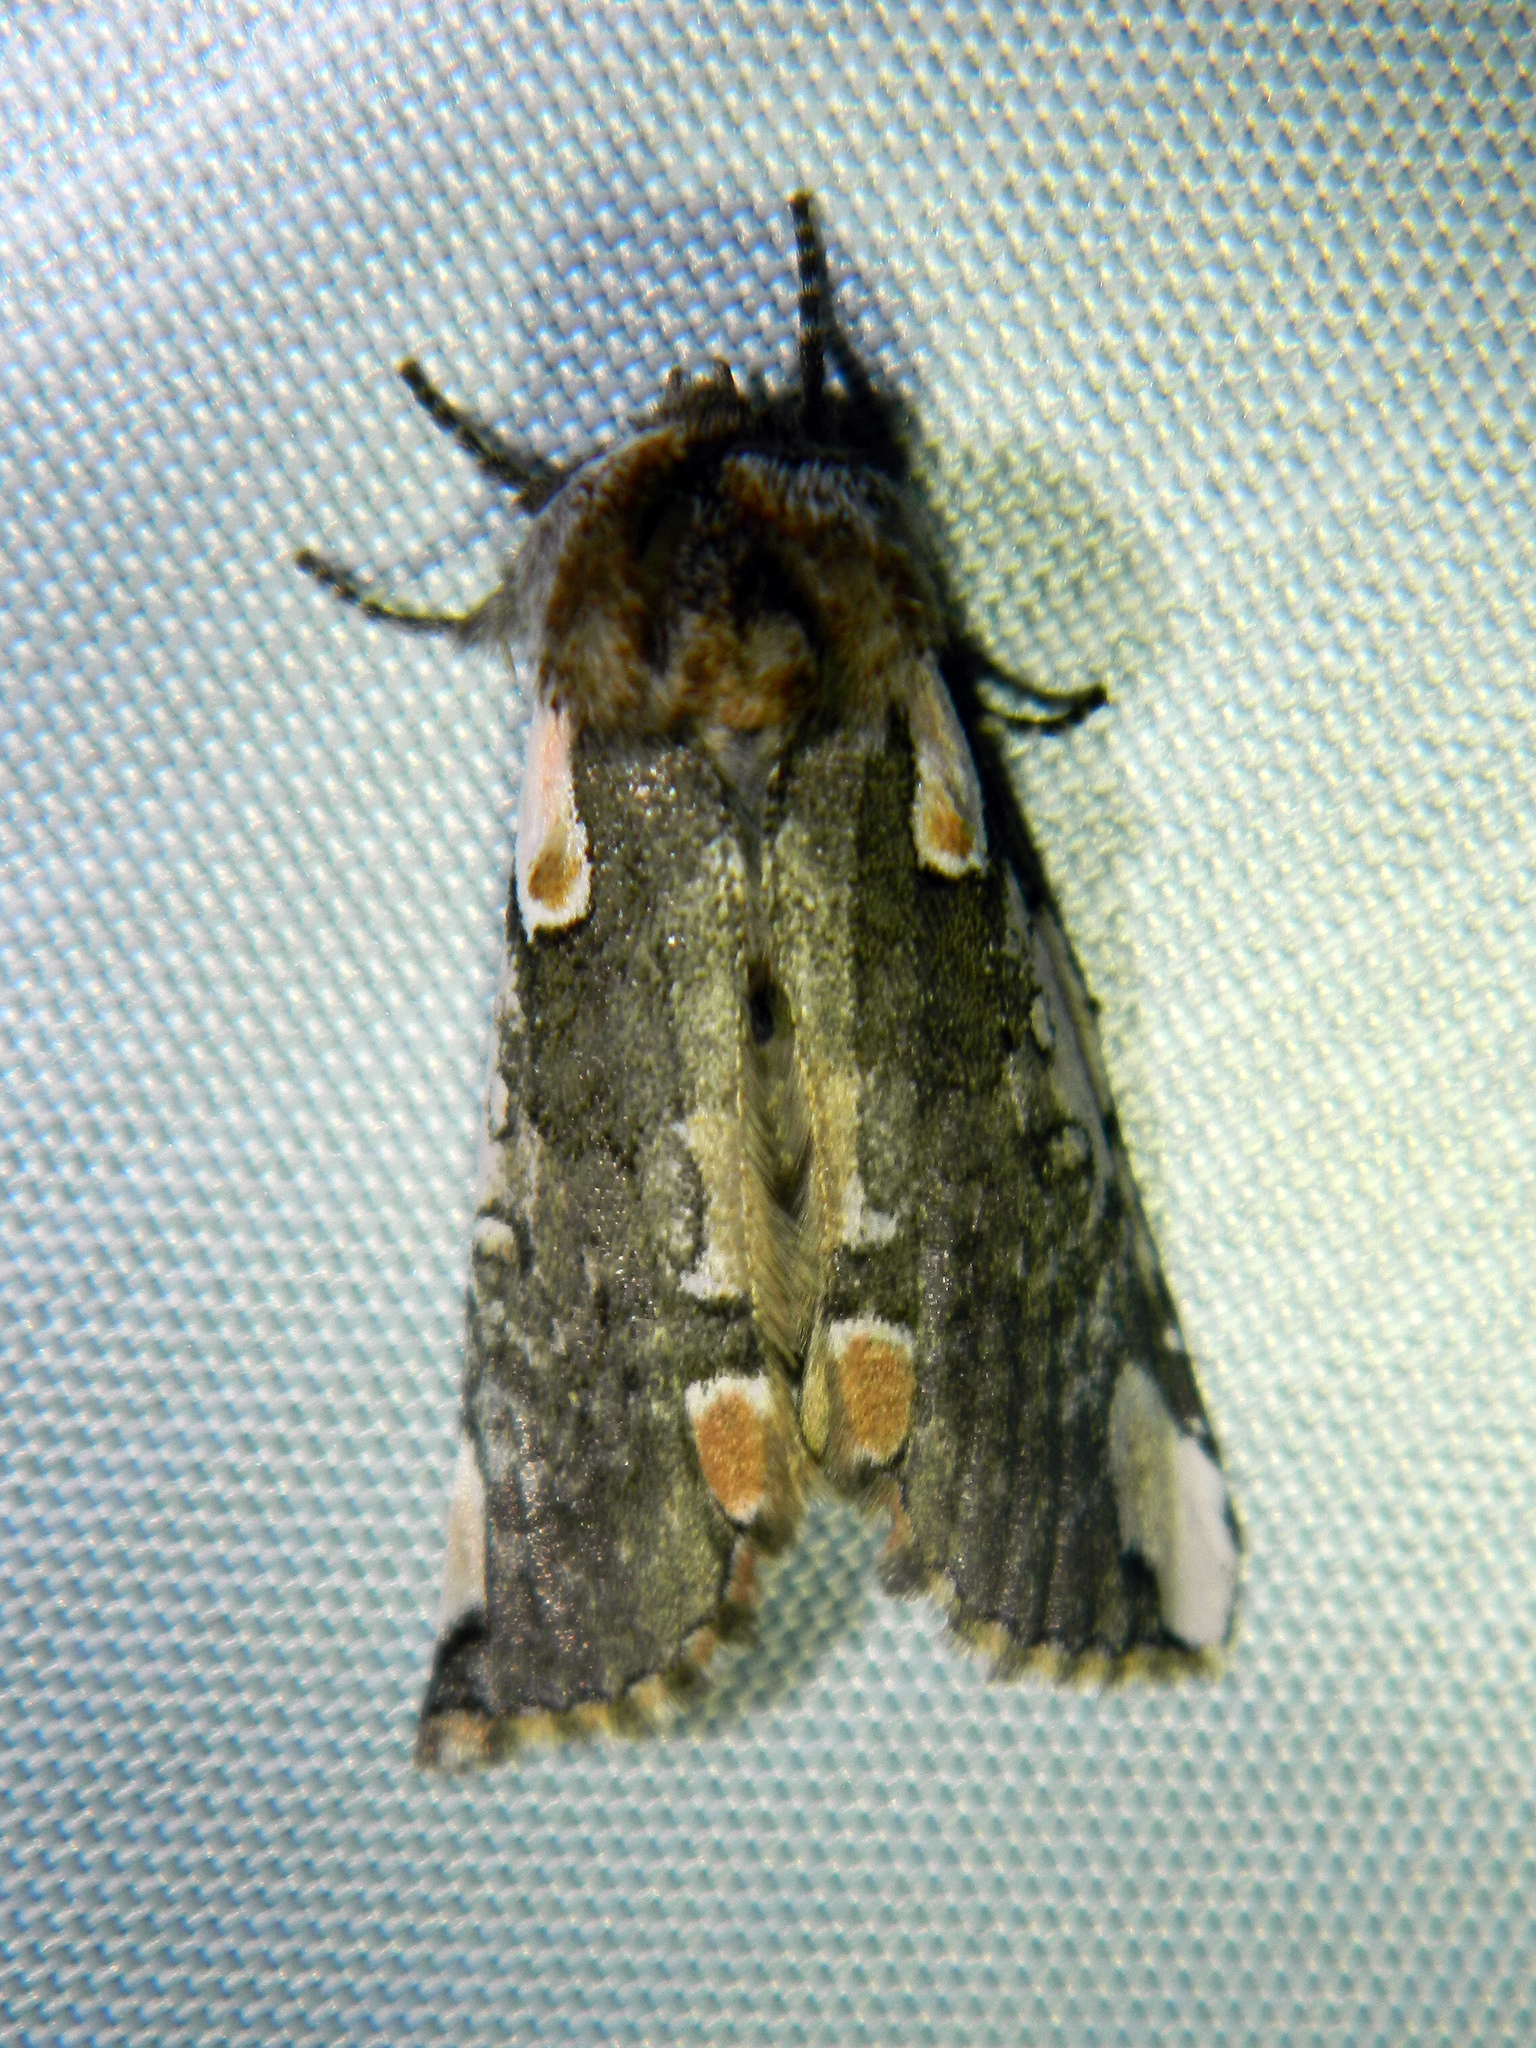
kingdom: Animalia
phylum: Arthropoda
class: Insecta
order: Lepidoptera
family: Drepanidae
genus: Euthyatira
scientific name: Euthyatira pudens
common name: Dogwood thyatirid moth
